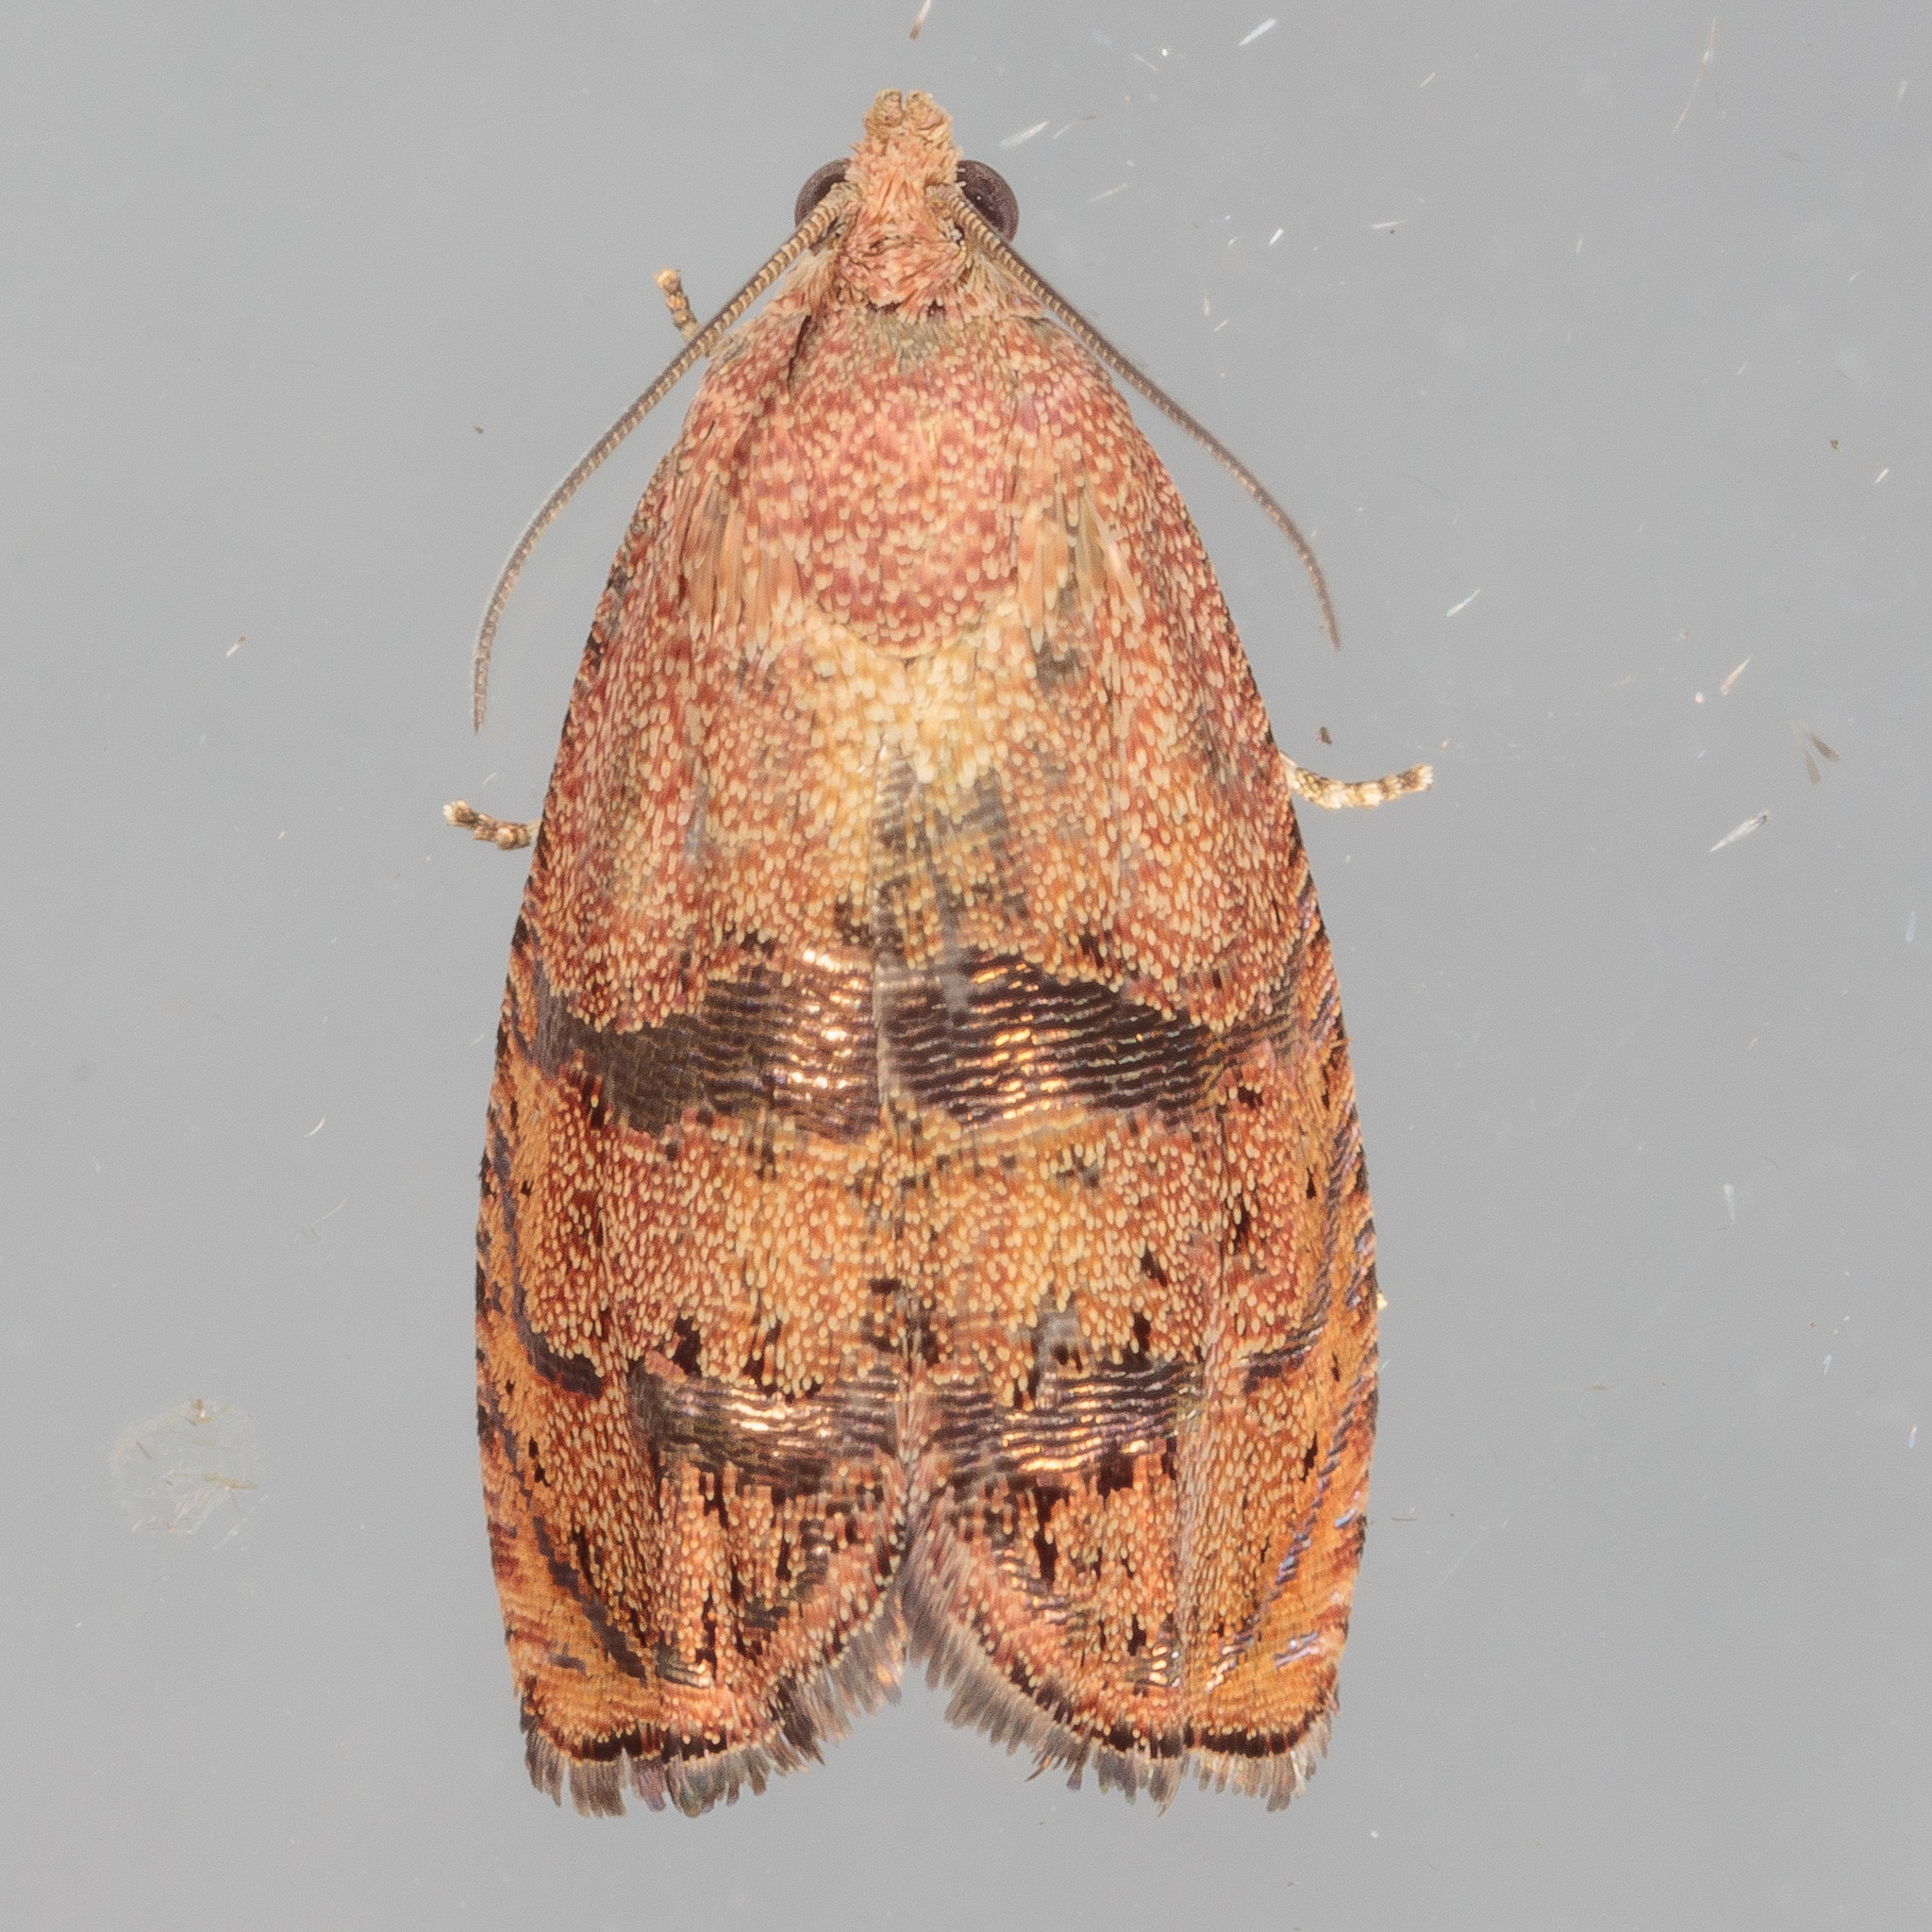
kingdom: Animalia
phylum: Arthropoda
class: Insecta
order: Lepidoptera
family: Tortricidae
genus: Cydia
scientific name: Cydia latiferreana
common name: Filbertworm moth
